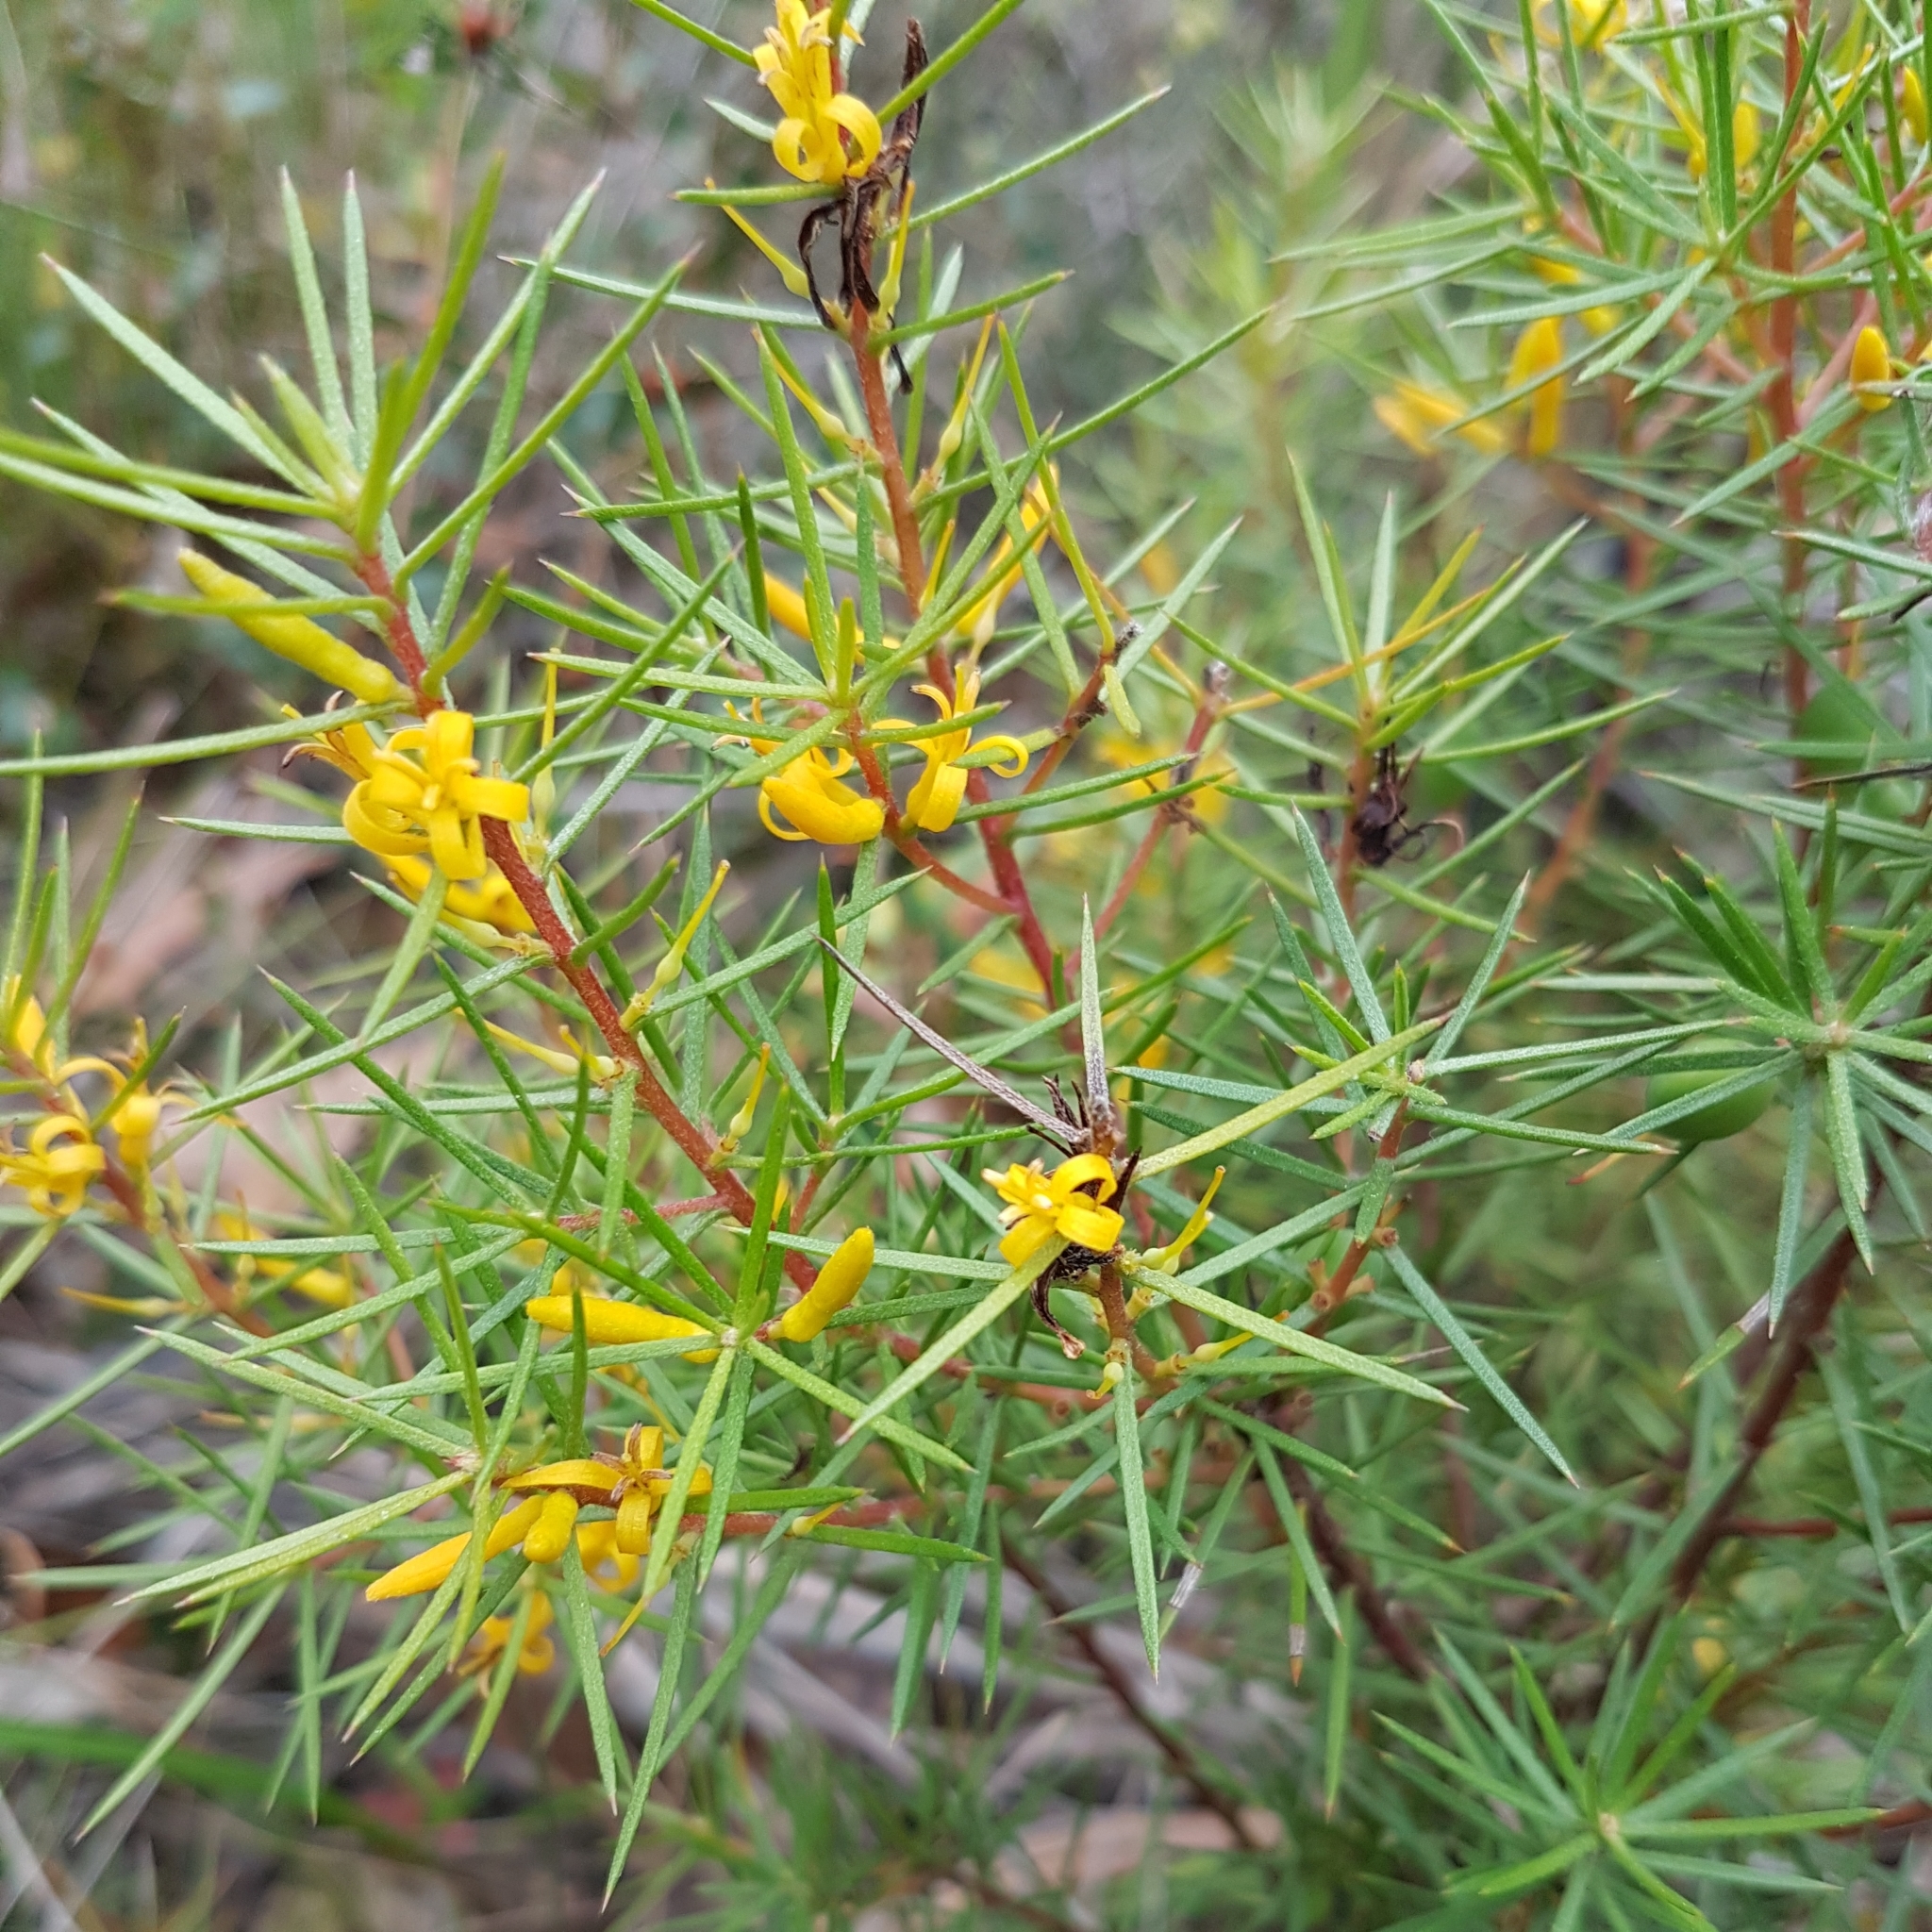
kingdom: Plantae
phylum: Tracheophyta
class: Magnoliopsida
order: Proteales
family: Proteaceae
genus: Persoonia
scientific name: Persoonia juniperina
